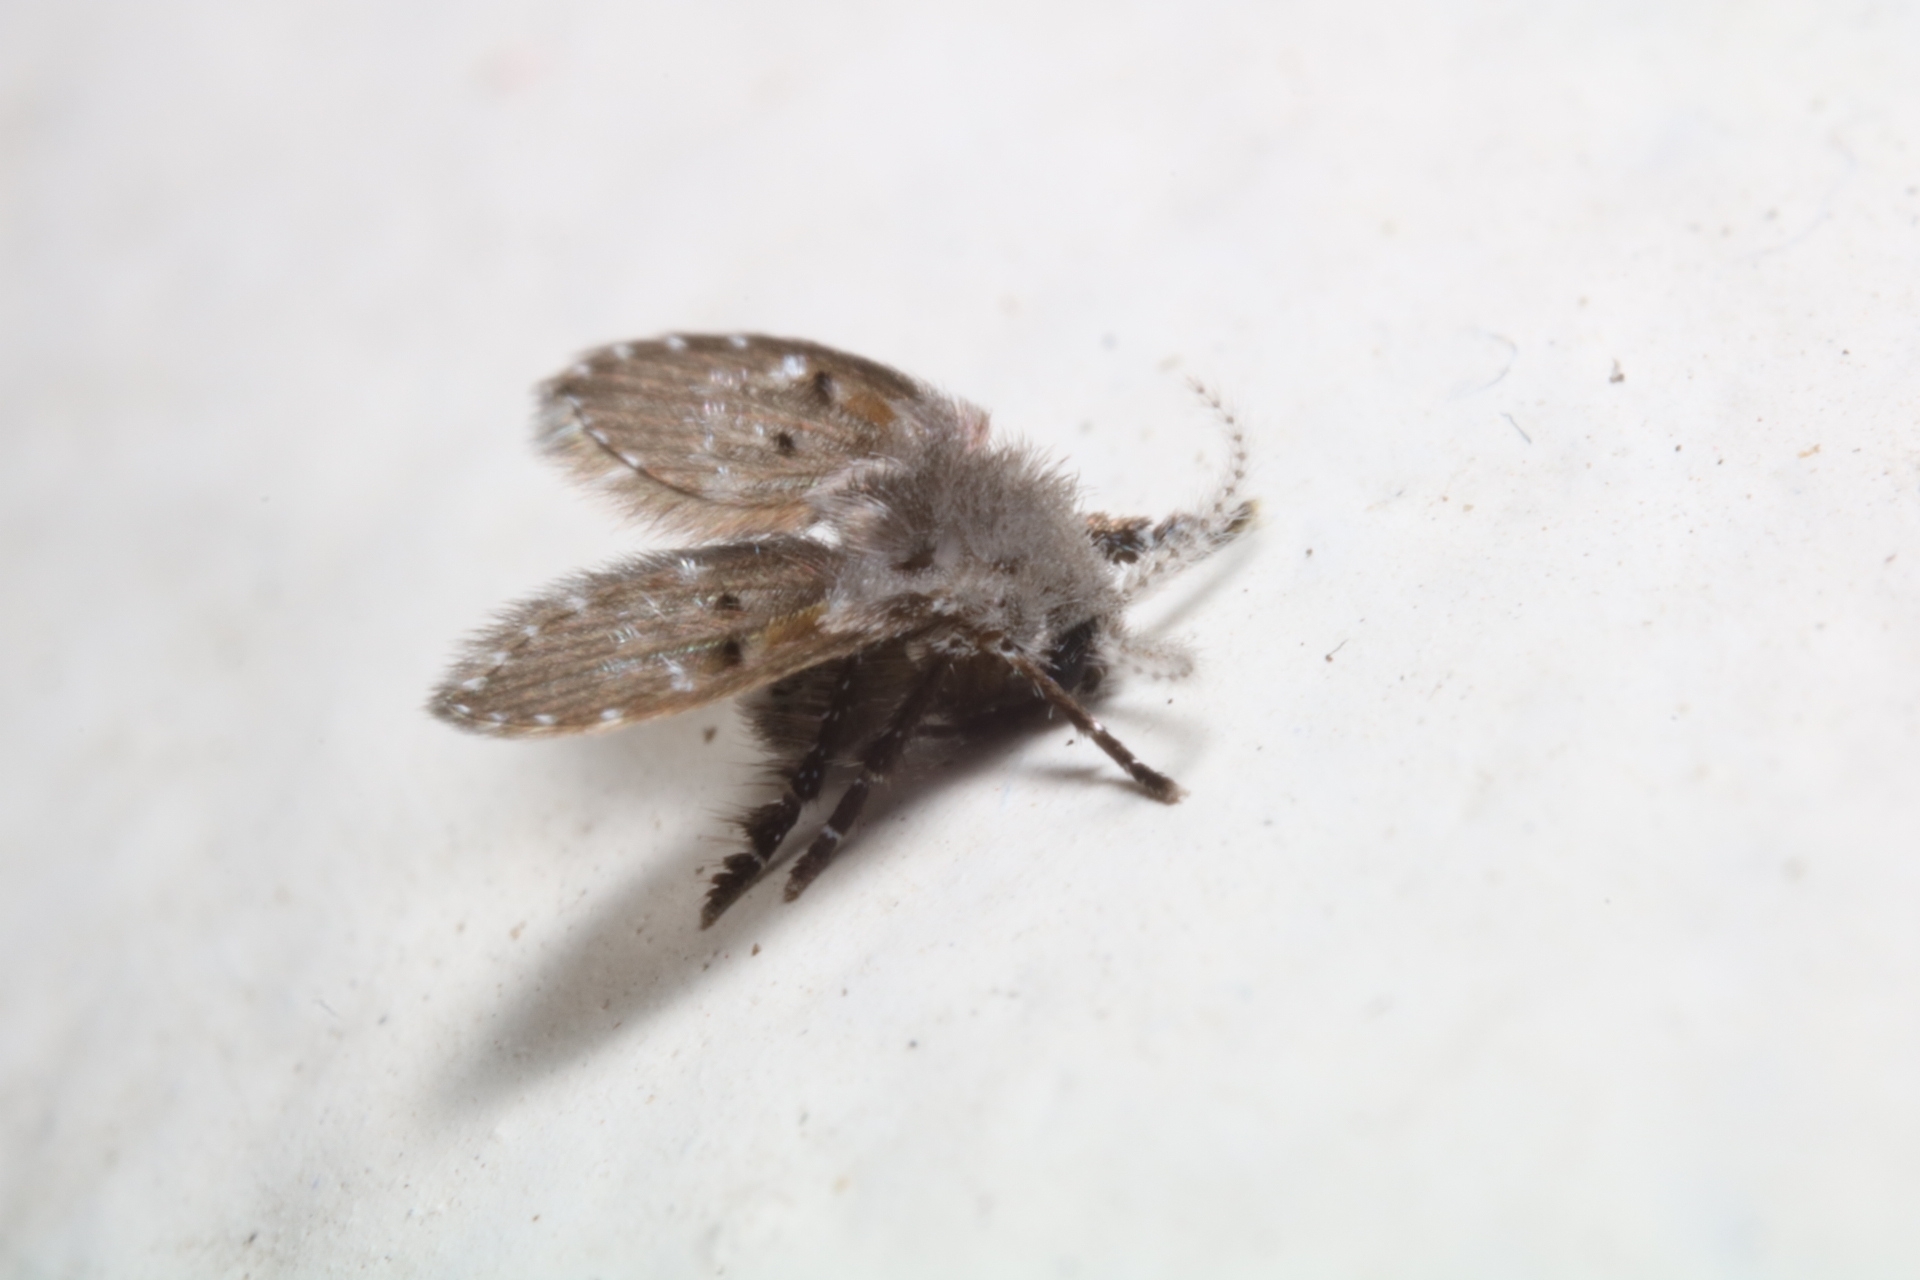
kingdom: Animalia
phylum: Arthropoda
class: Insecta
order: Diptera
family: Psychodidae
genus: Clogmia
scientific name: Clogmia albipunctatus
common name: White-spotted moth fly
